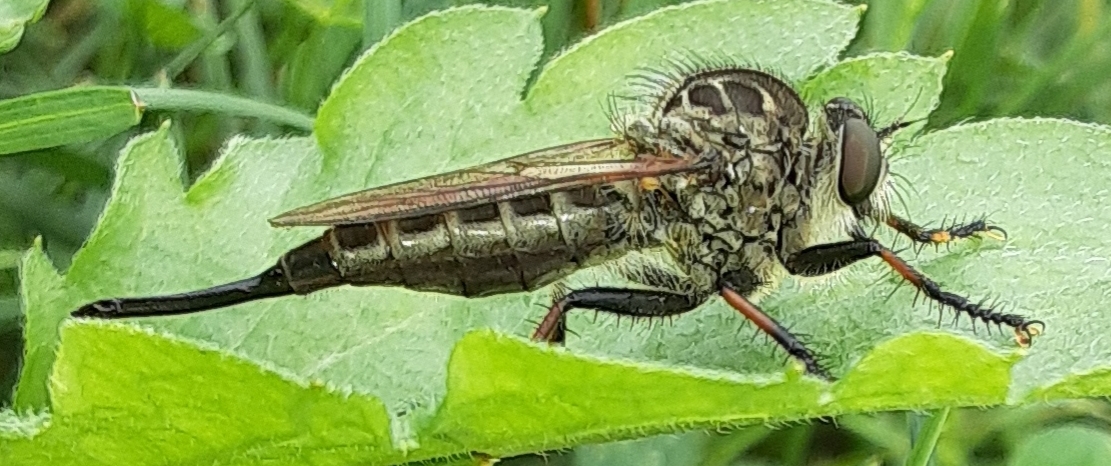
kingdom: Animalia
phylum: Arthropoda
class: Insecta
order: Diptera
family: Asilidae
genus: Efferia
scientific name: Efferia aestuans
